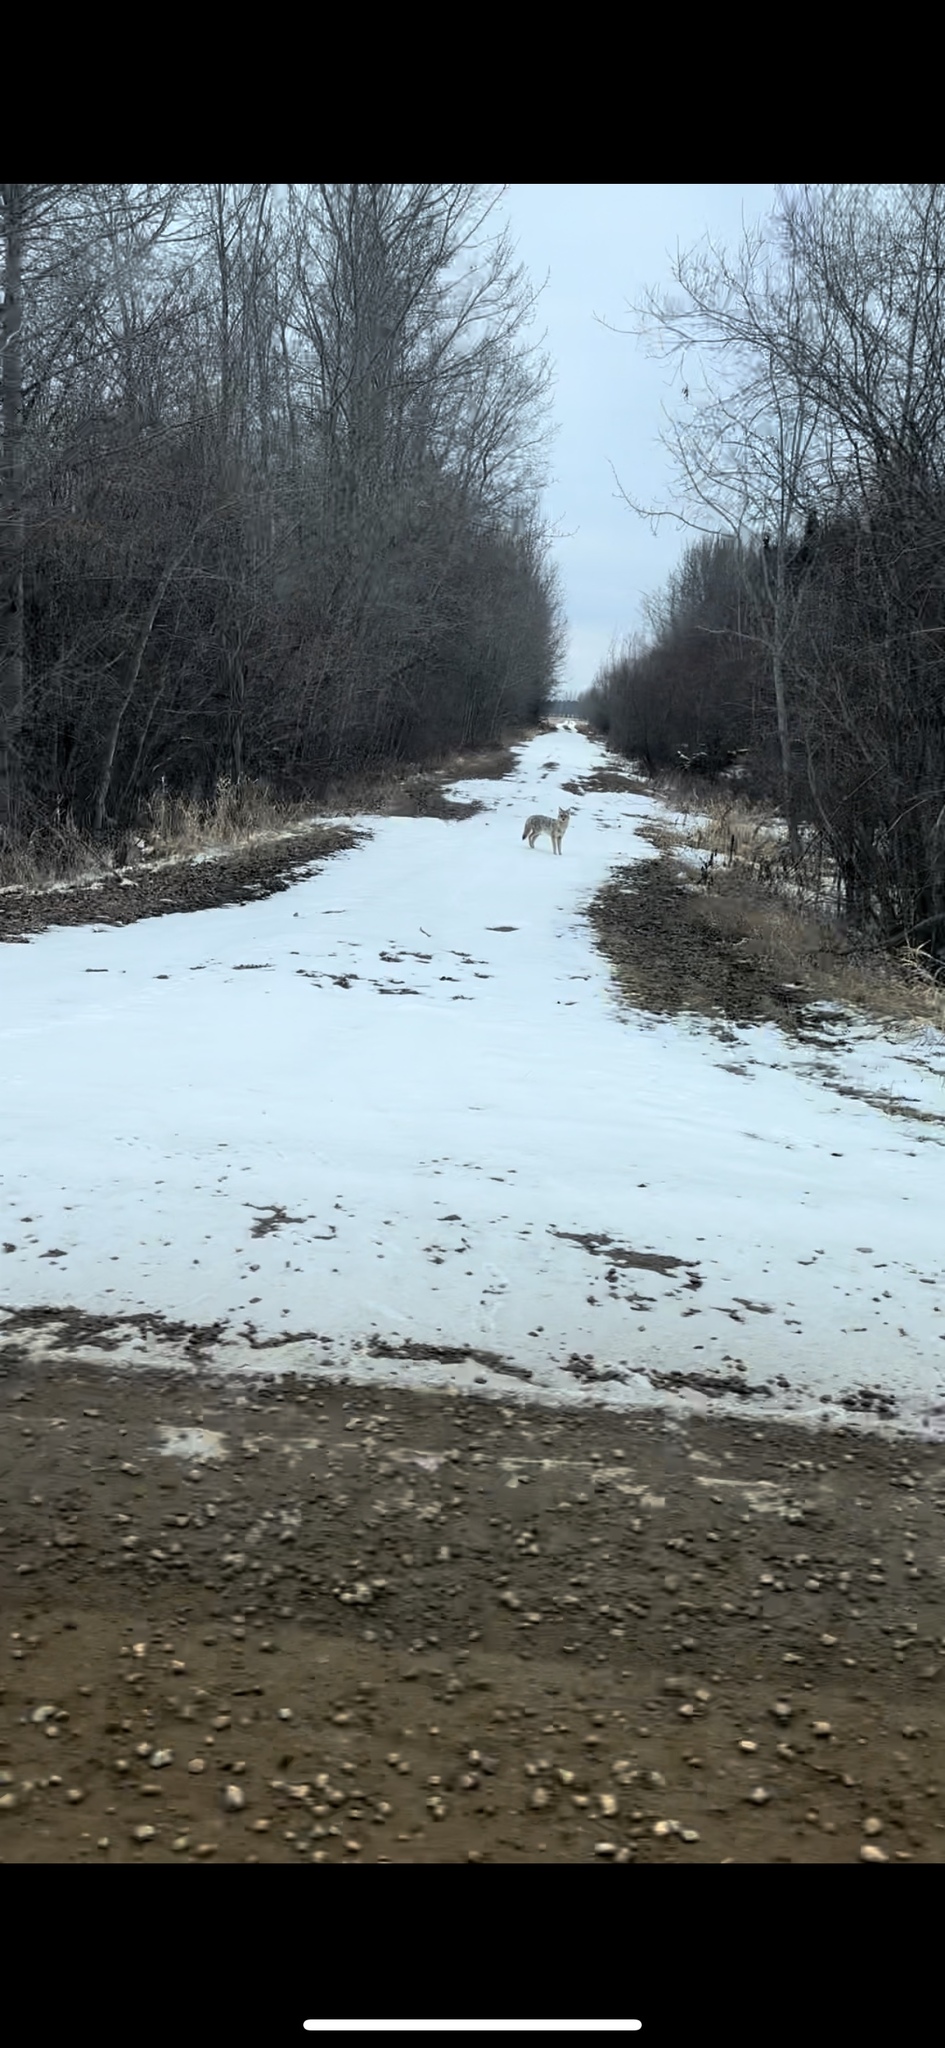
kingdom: Animalia
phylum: Chordata
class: Mammalia
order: Carnivora
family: Canidae
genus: Canis
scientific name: Canis latrans
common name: Coyote
